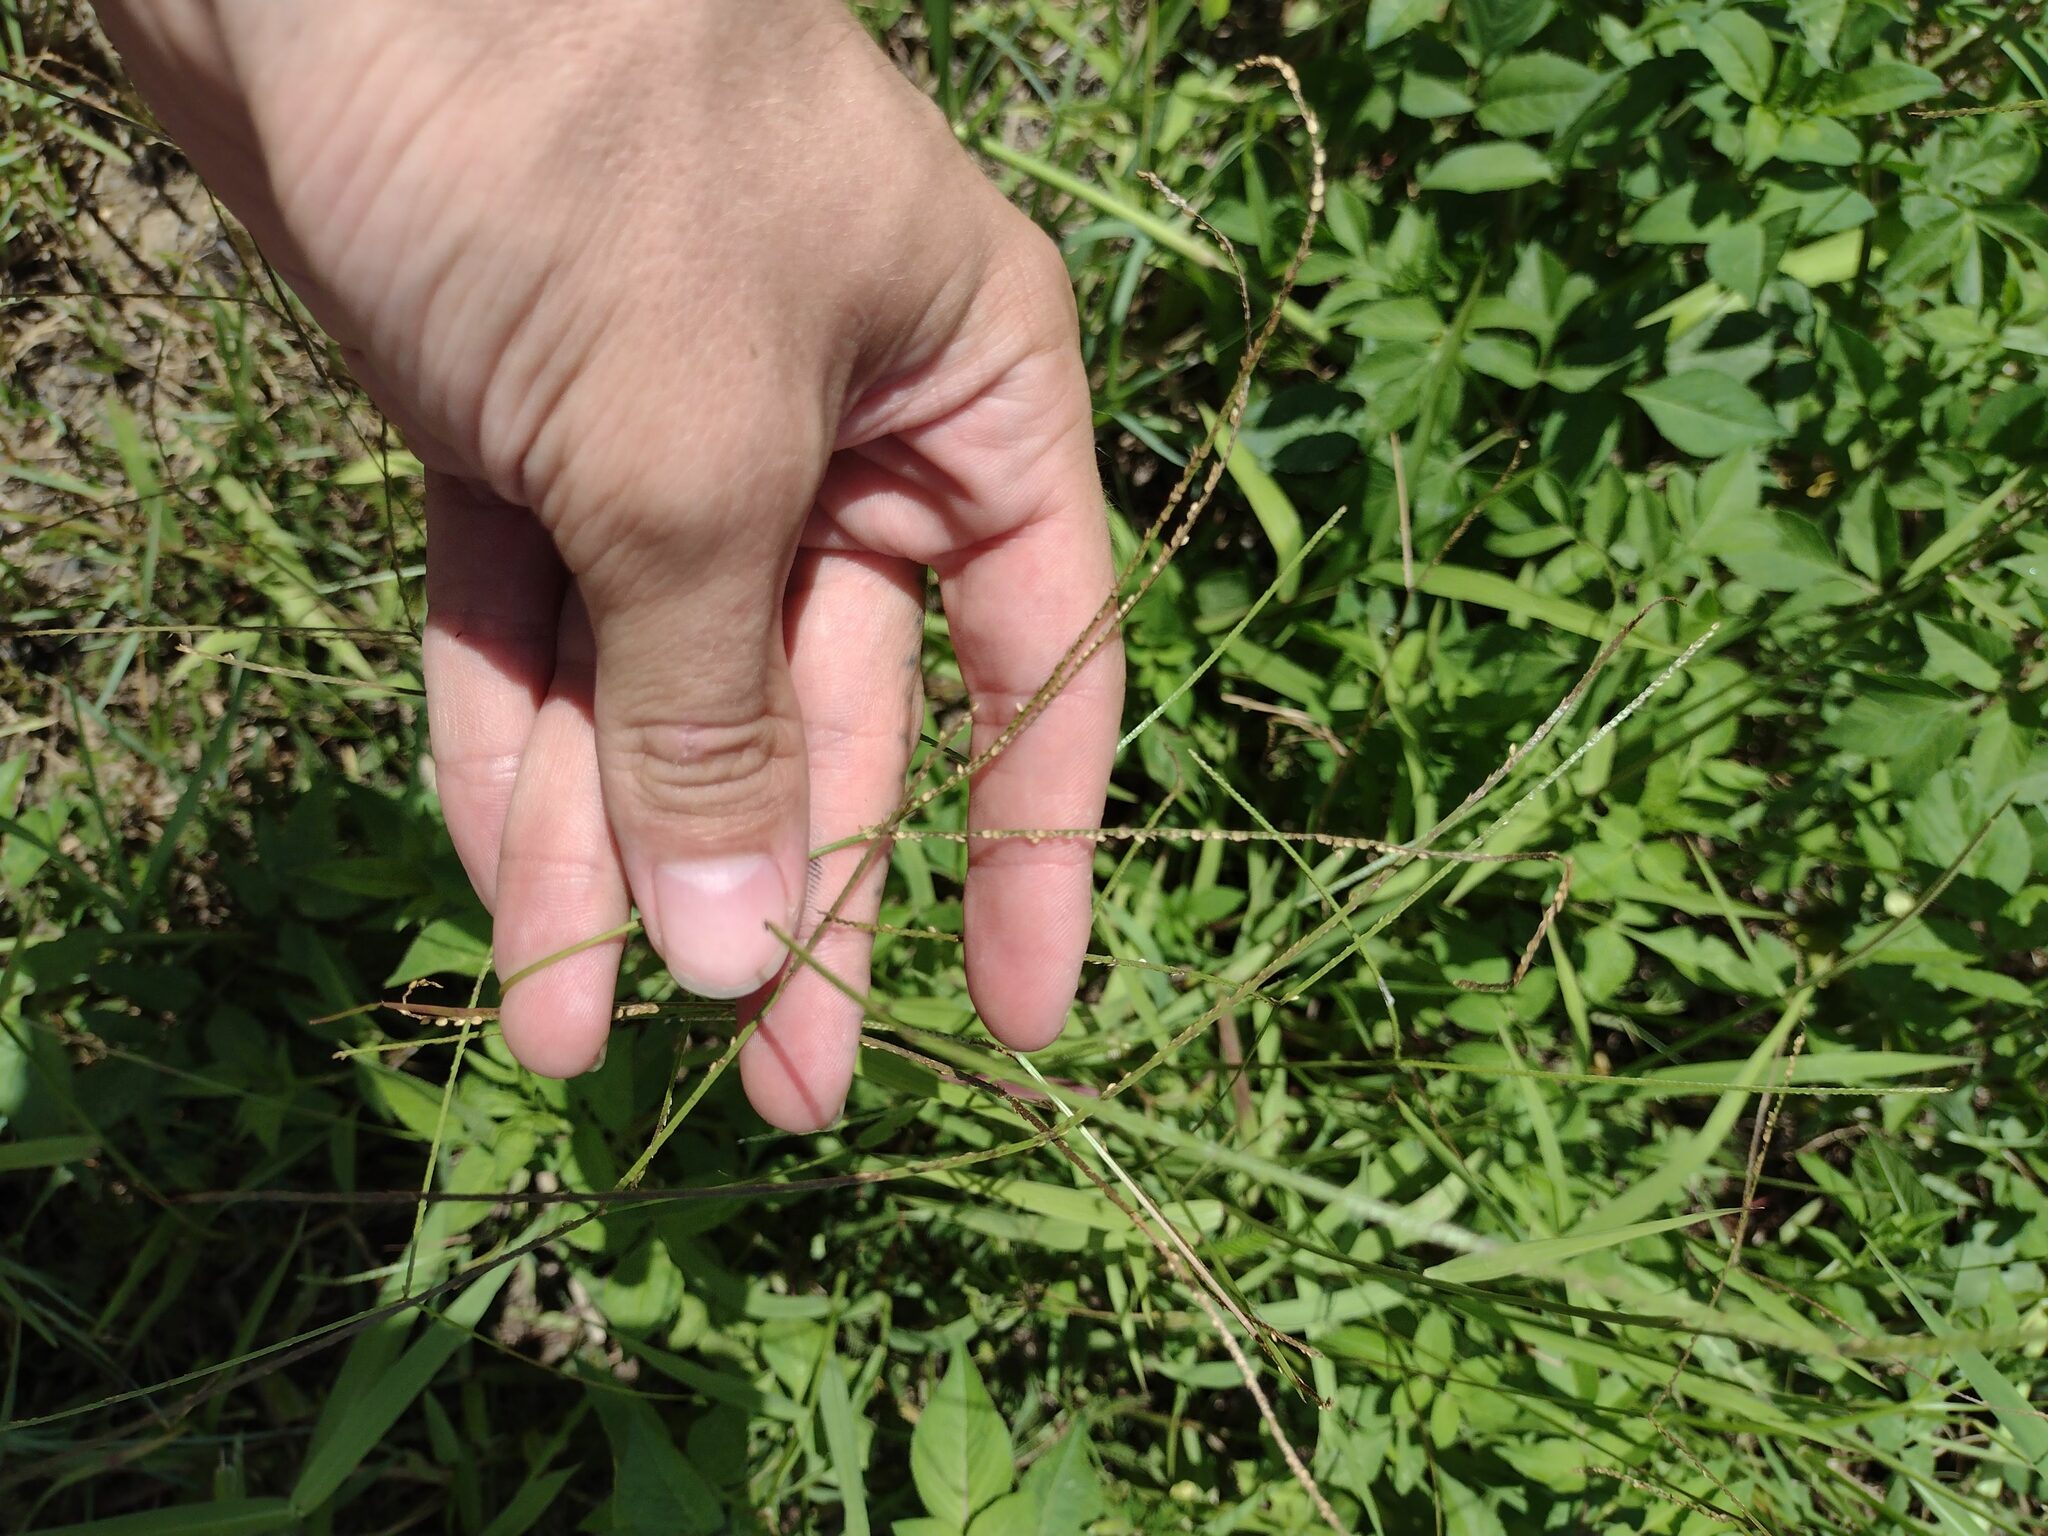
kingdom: Plantae
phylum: Tracheophyta
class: Liliopsida
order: Poales
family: Poaceae
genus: Paspalum
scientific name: Paspalum conjugatum
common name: Hilograss
